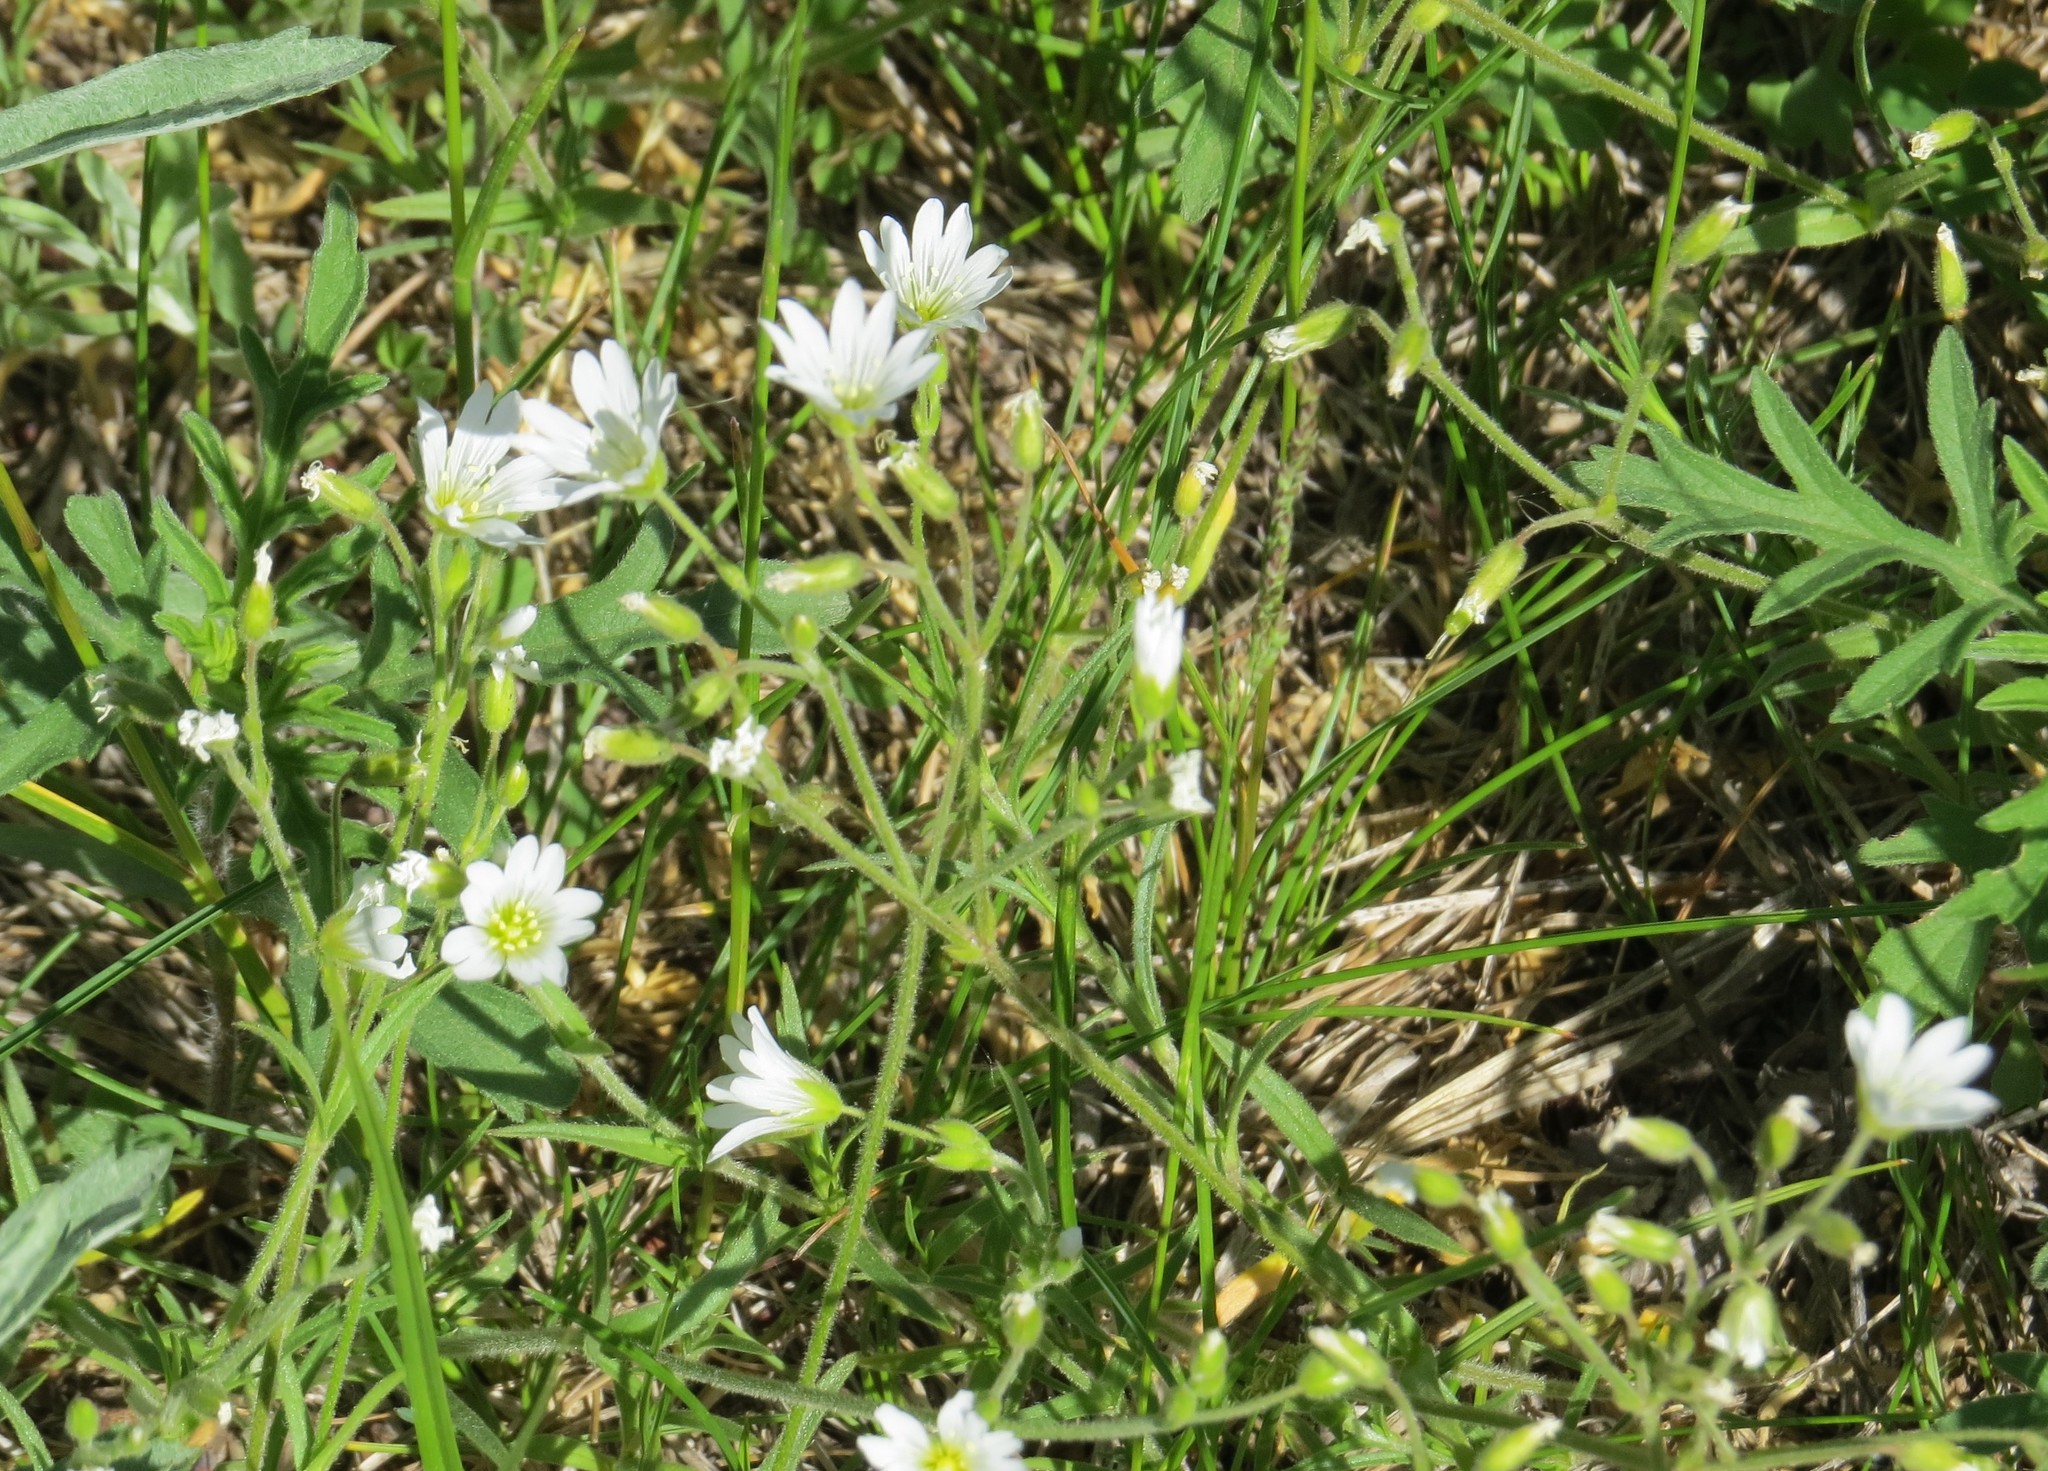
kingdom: Plantae
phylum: Tracheophyta
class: Magnoliopsida
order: Caryophyllales
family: Caryophyllaceae
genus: Cerastium
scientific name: Cerastium arvense
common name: Field mouse-ear
